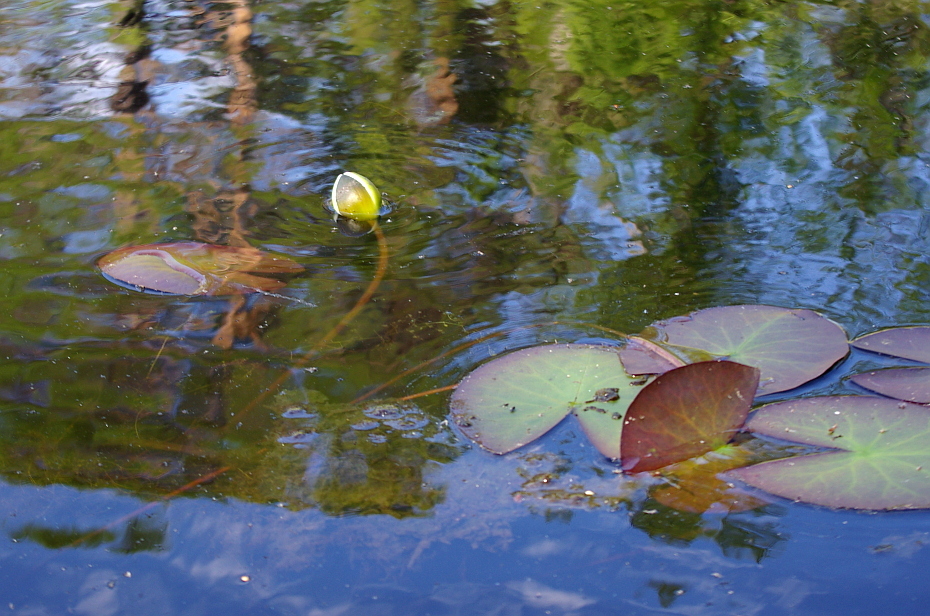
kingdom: Plantae
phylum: Tracheophyta
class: Magnoliopsida
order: Nymphaeales
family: Nymphaeaceae
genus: Nymphaea
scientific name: Nymphaea tetragona
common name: Pygmy water-lily
